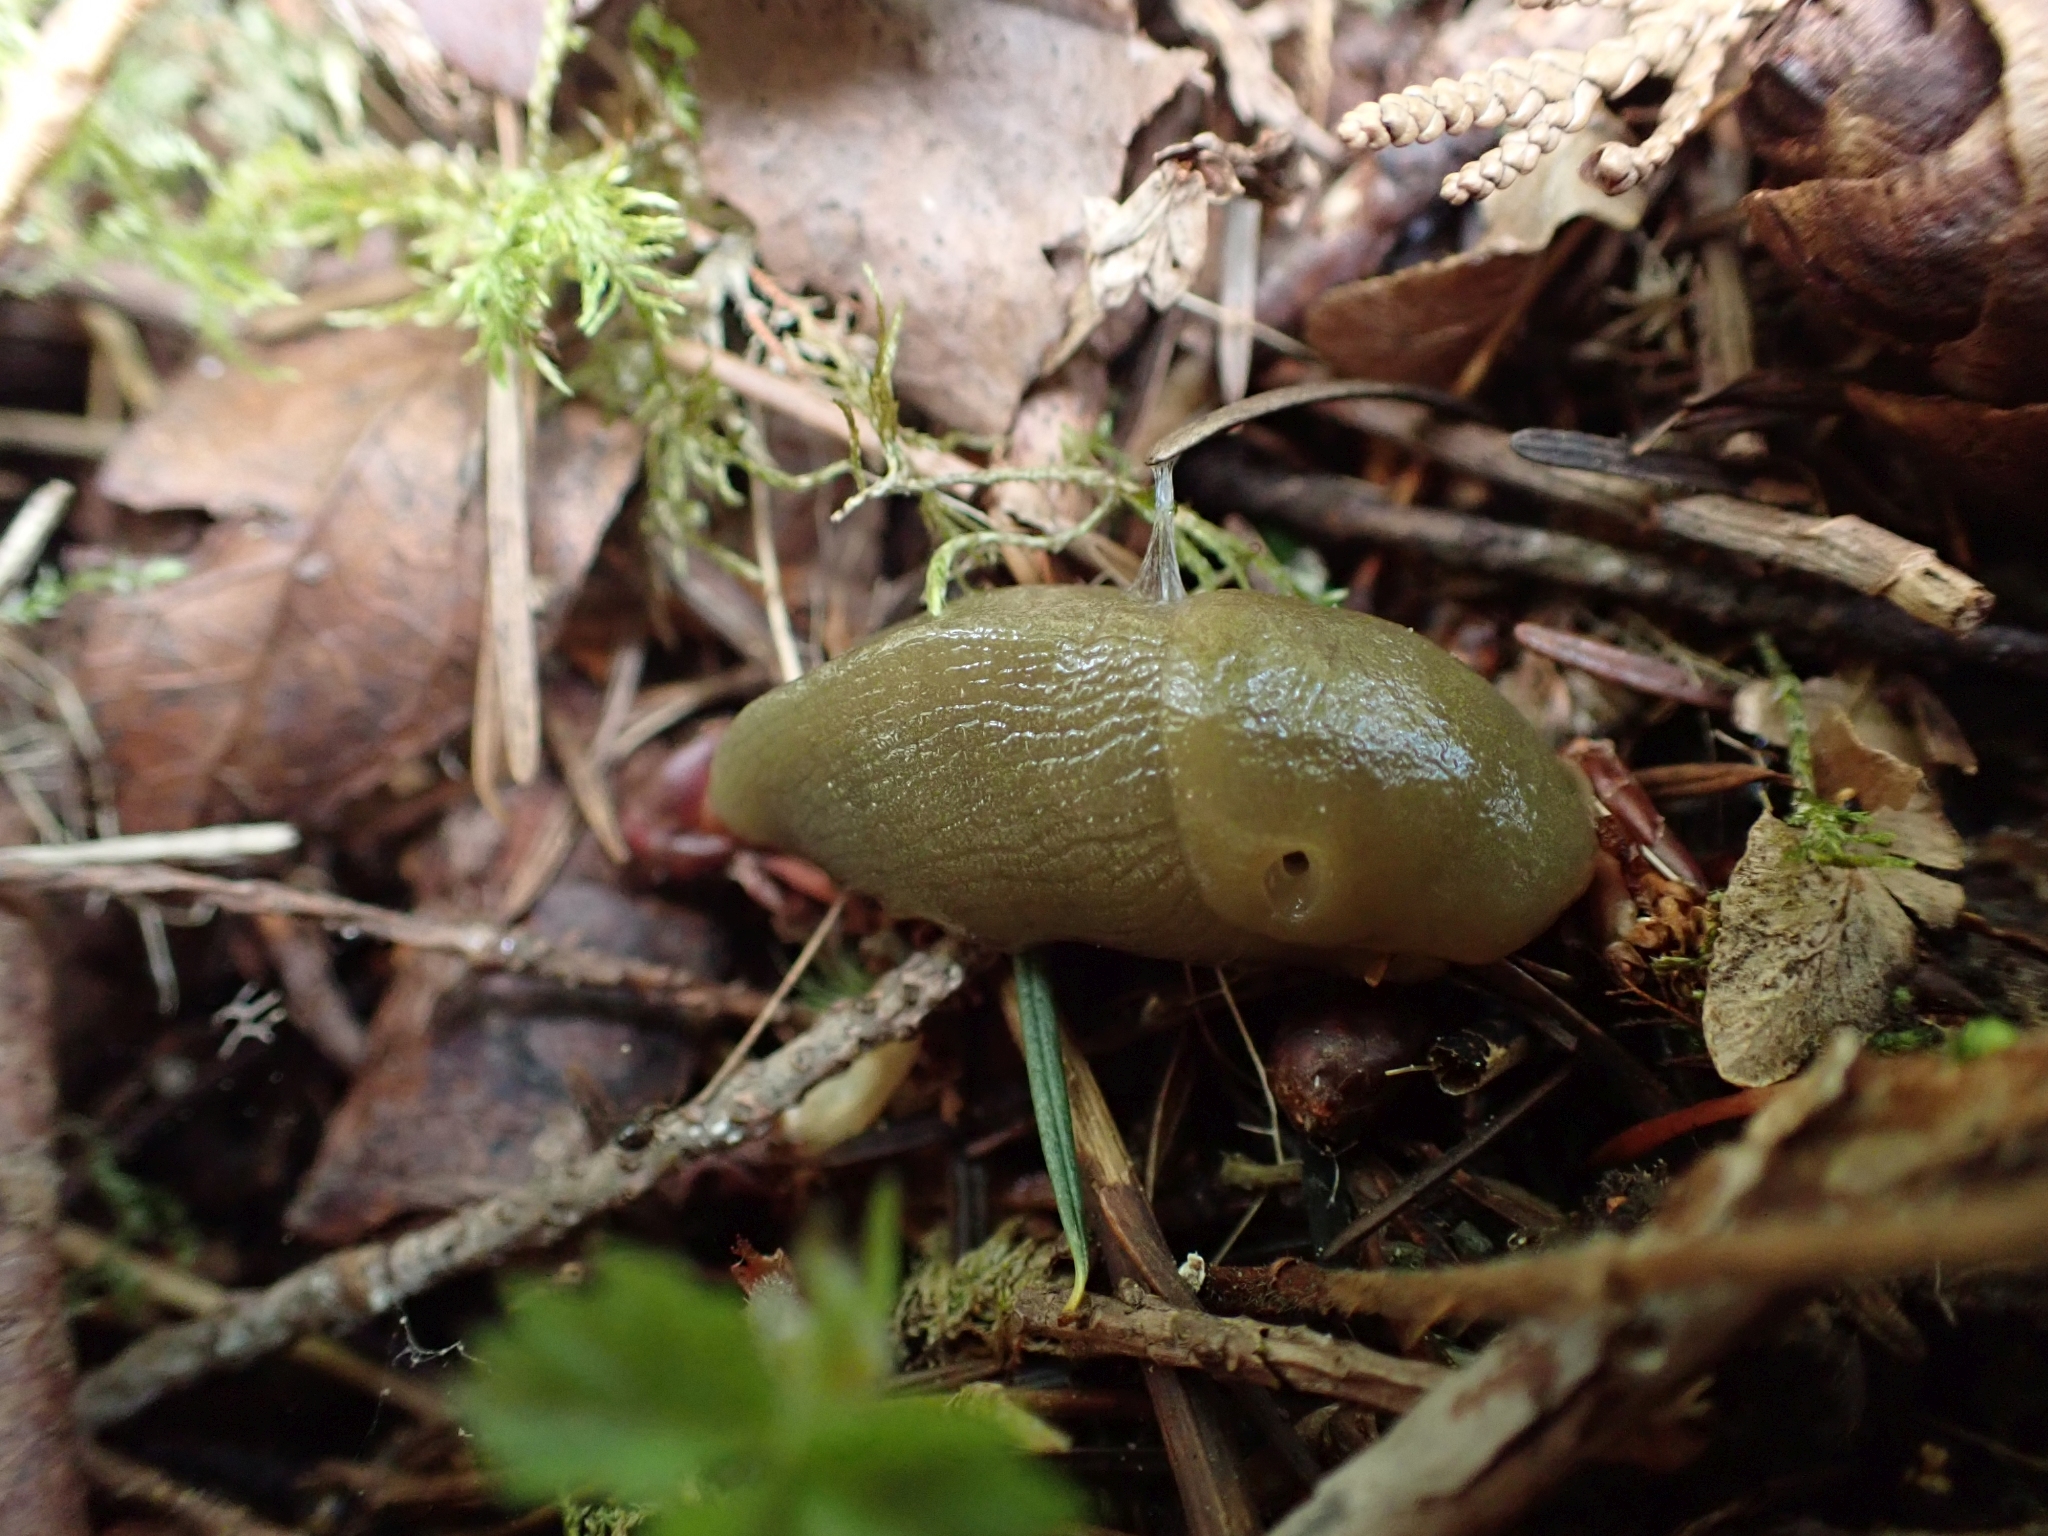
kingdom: Animalia
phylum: Mollusca
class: Gastropoda
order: Stylommatophora
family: Ariolimacidae
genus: Ariolimax
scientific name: Ariolimax columbianus
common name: Pacific banana slug
